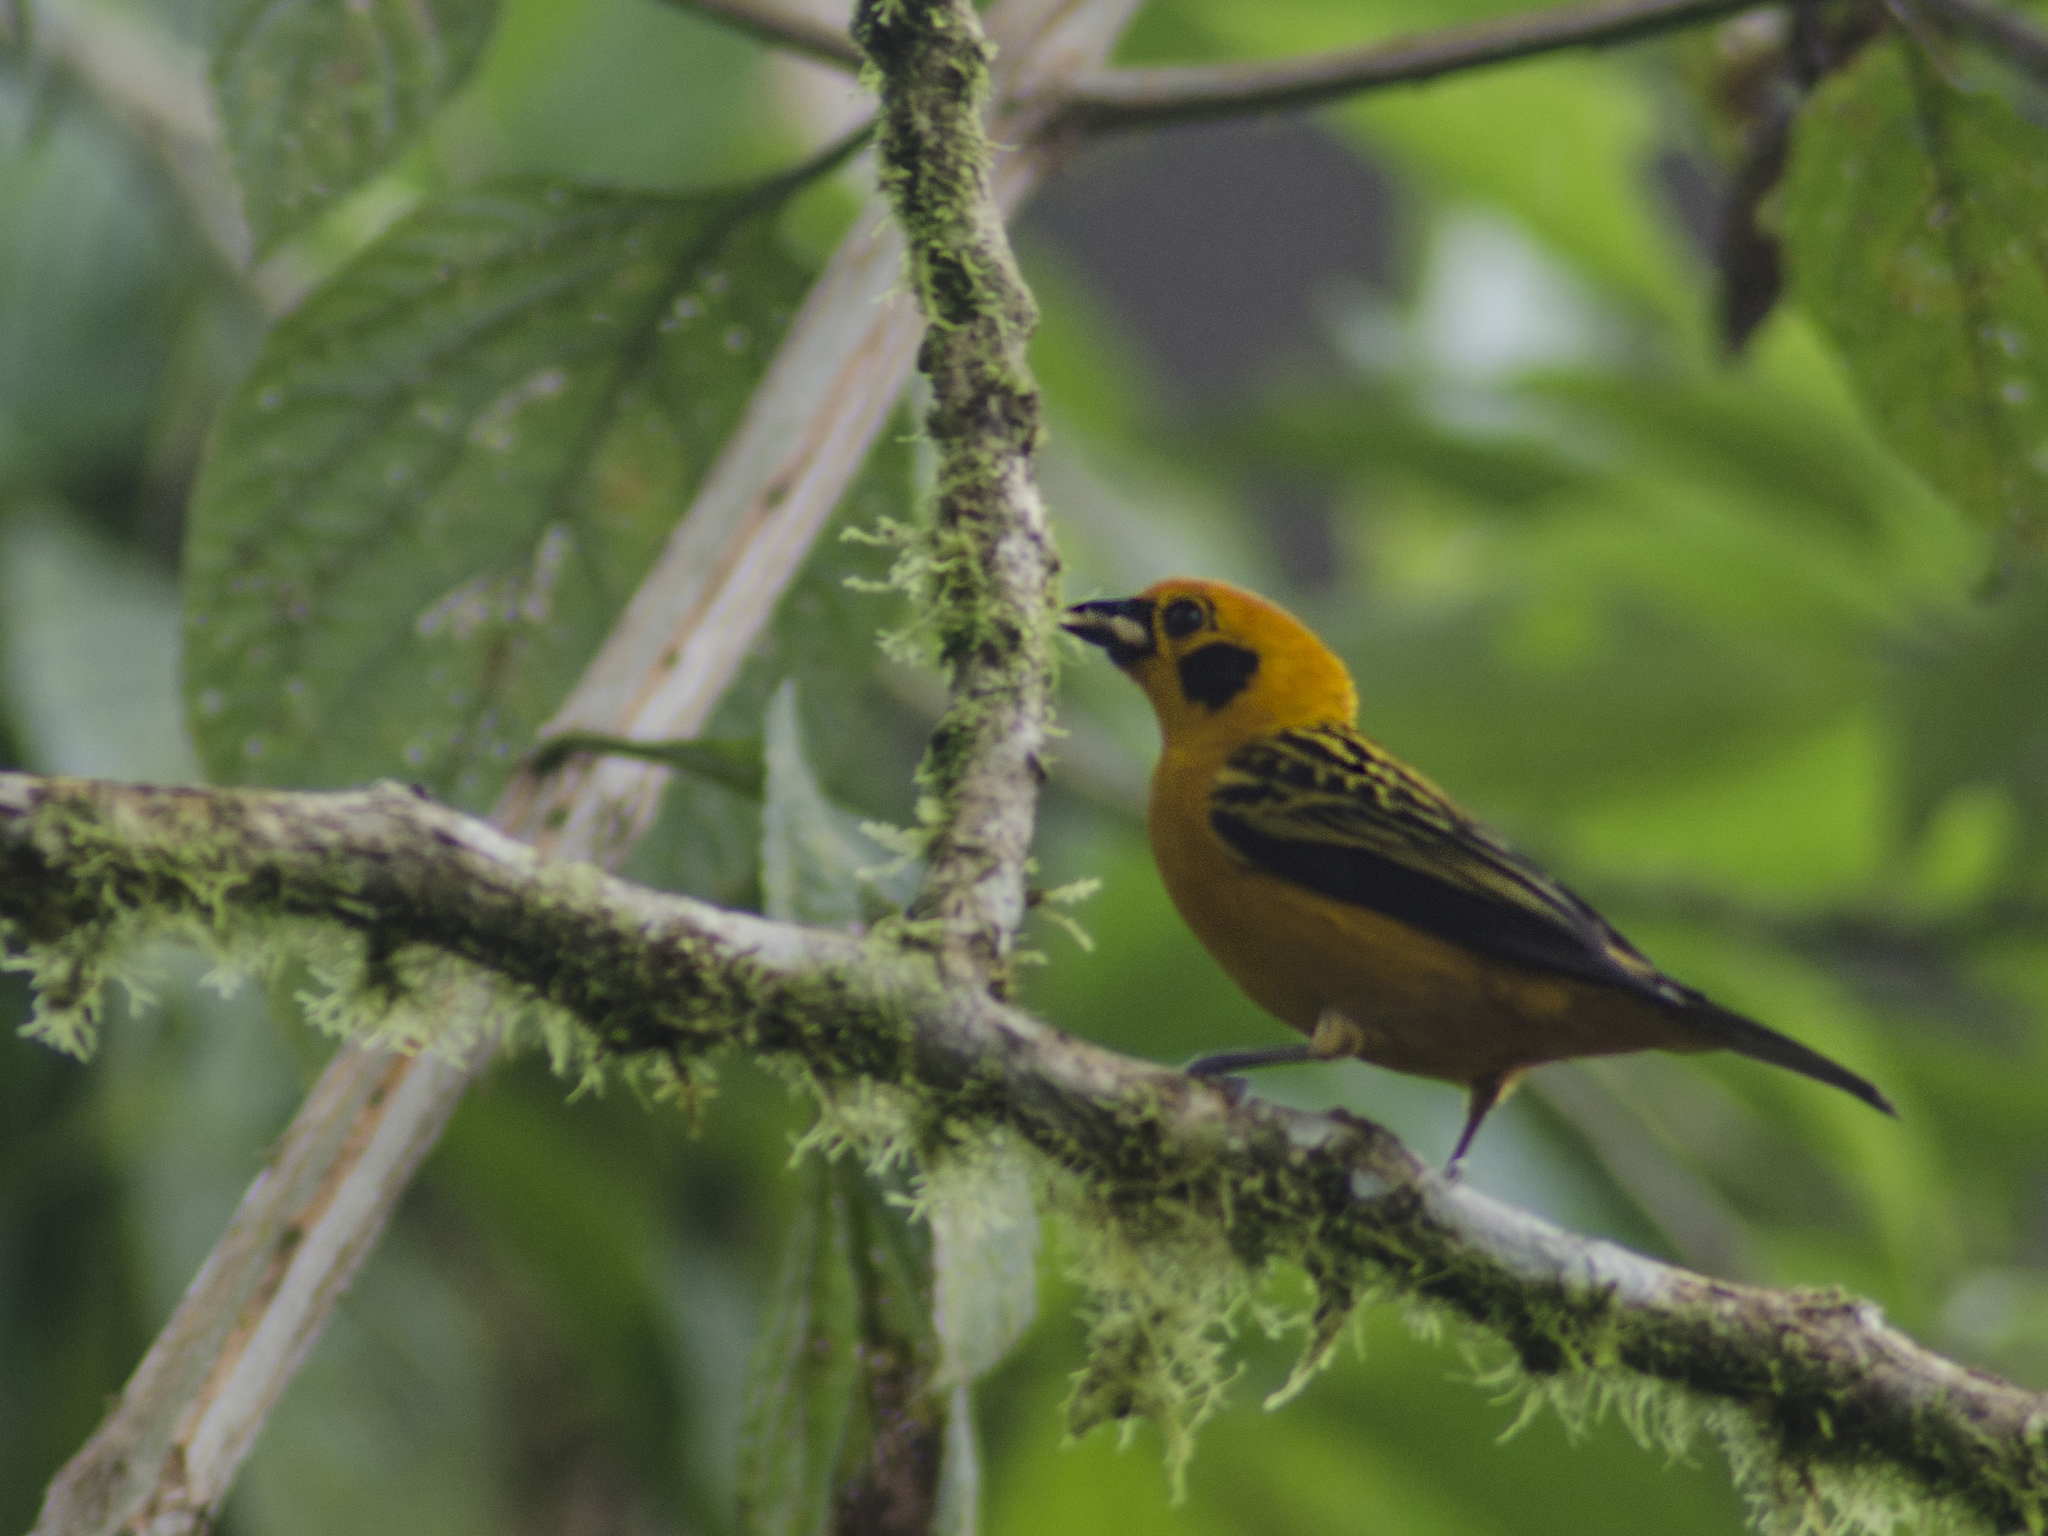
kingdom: Animalia
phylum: Chordata
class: Aves
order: Passeriformes
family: Thraupidae
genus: Tangara
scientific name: Tangara arthus
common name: Golden tanager
